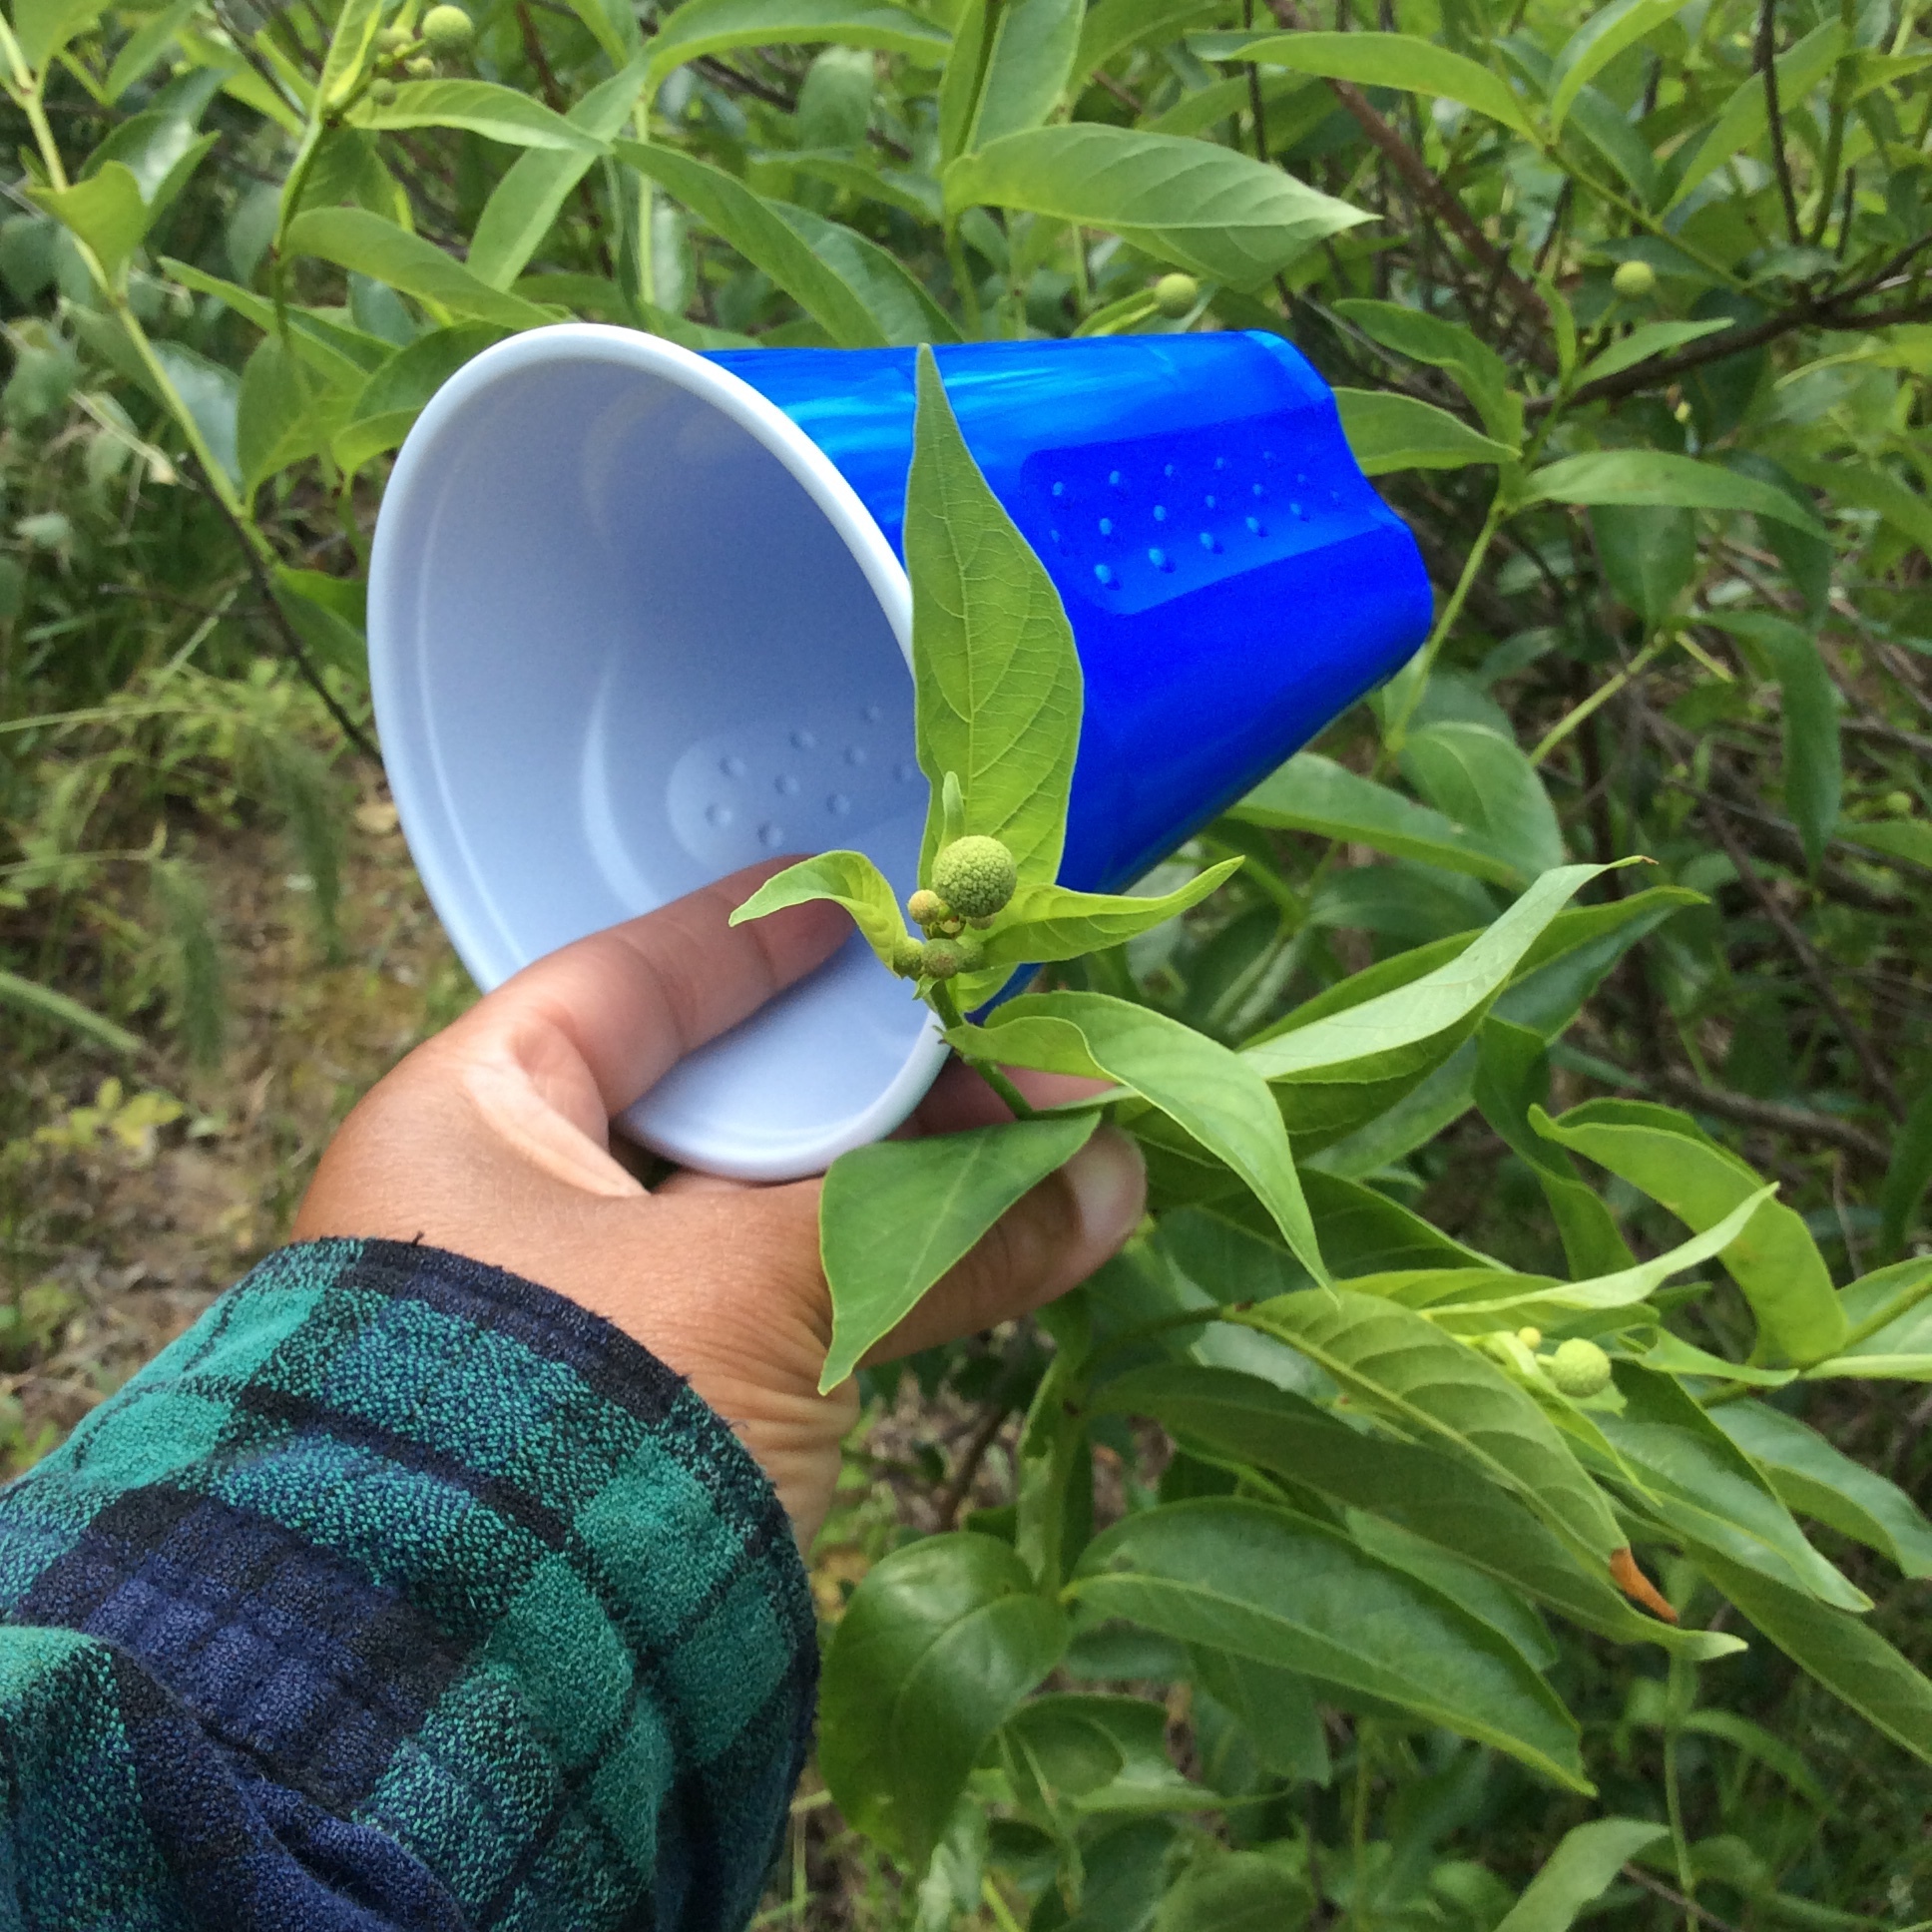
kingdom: Plantae
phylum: Tracheophyta
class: Magnoliopsida
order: Gentianales
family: Rubiaceae
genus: Cephalanthus
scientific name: Cephalanthus occidentalis
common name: Button-willow
